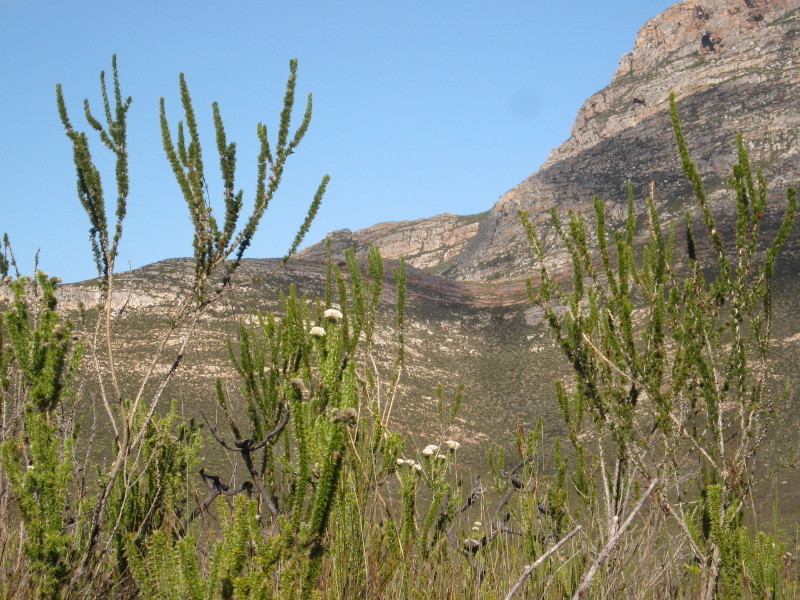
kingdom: Plantae
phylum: Tracheophyta
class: Magnoliopsida
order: Fabales
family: Fabaceae
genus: Aspalathus
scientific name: Aspalathus sceptrumaureum
